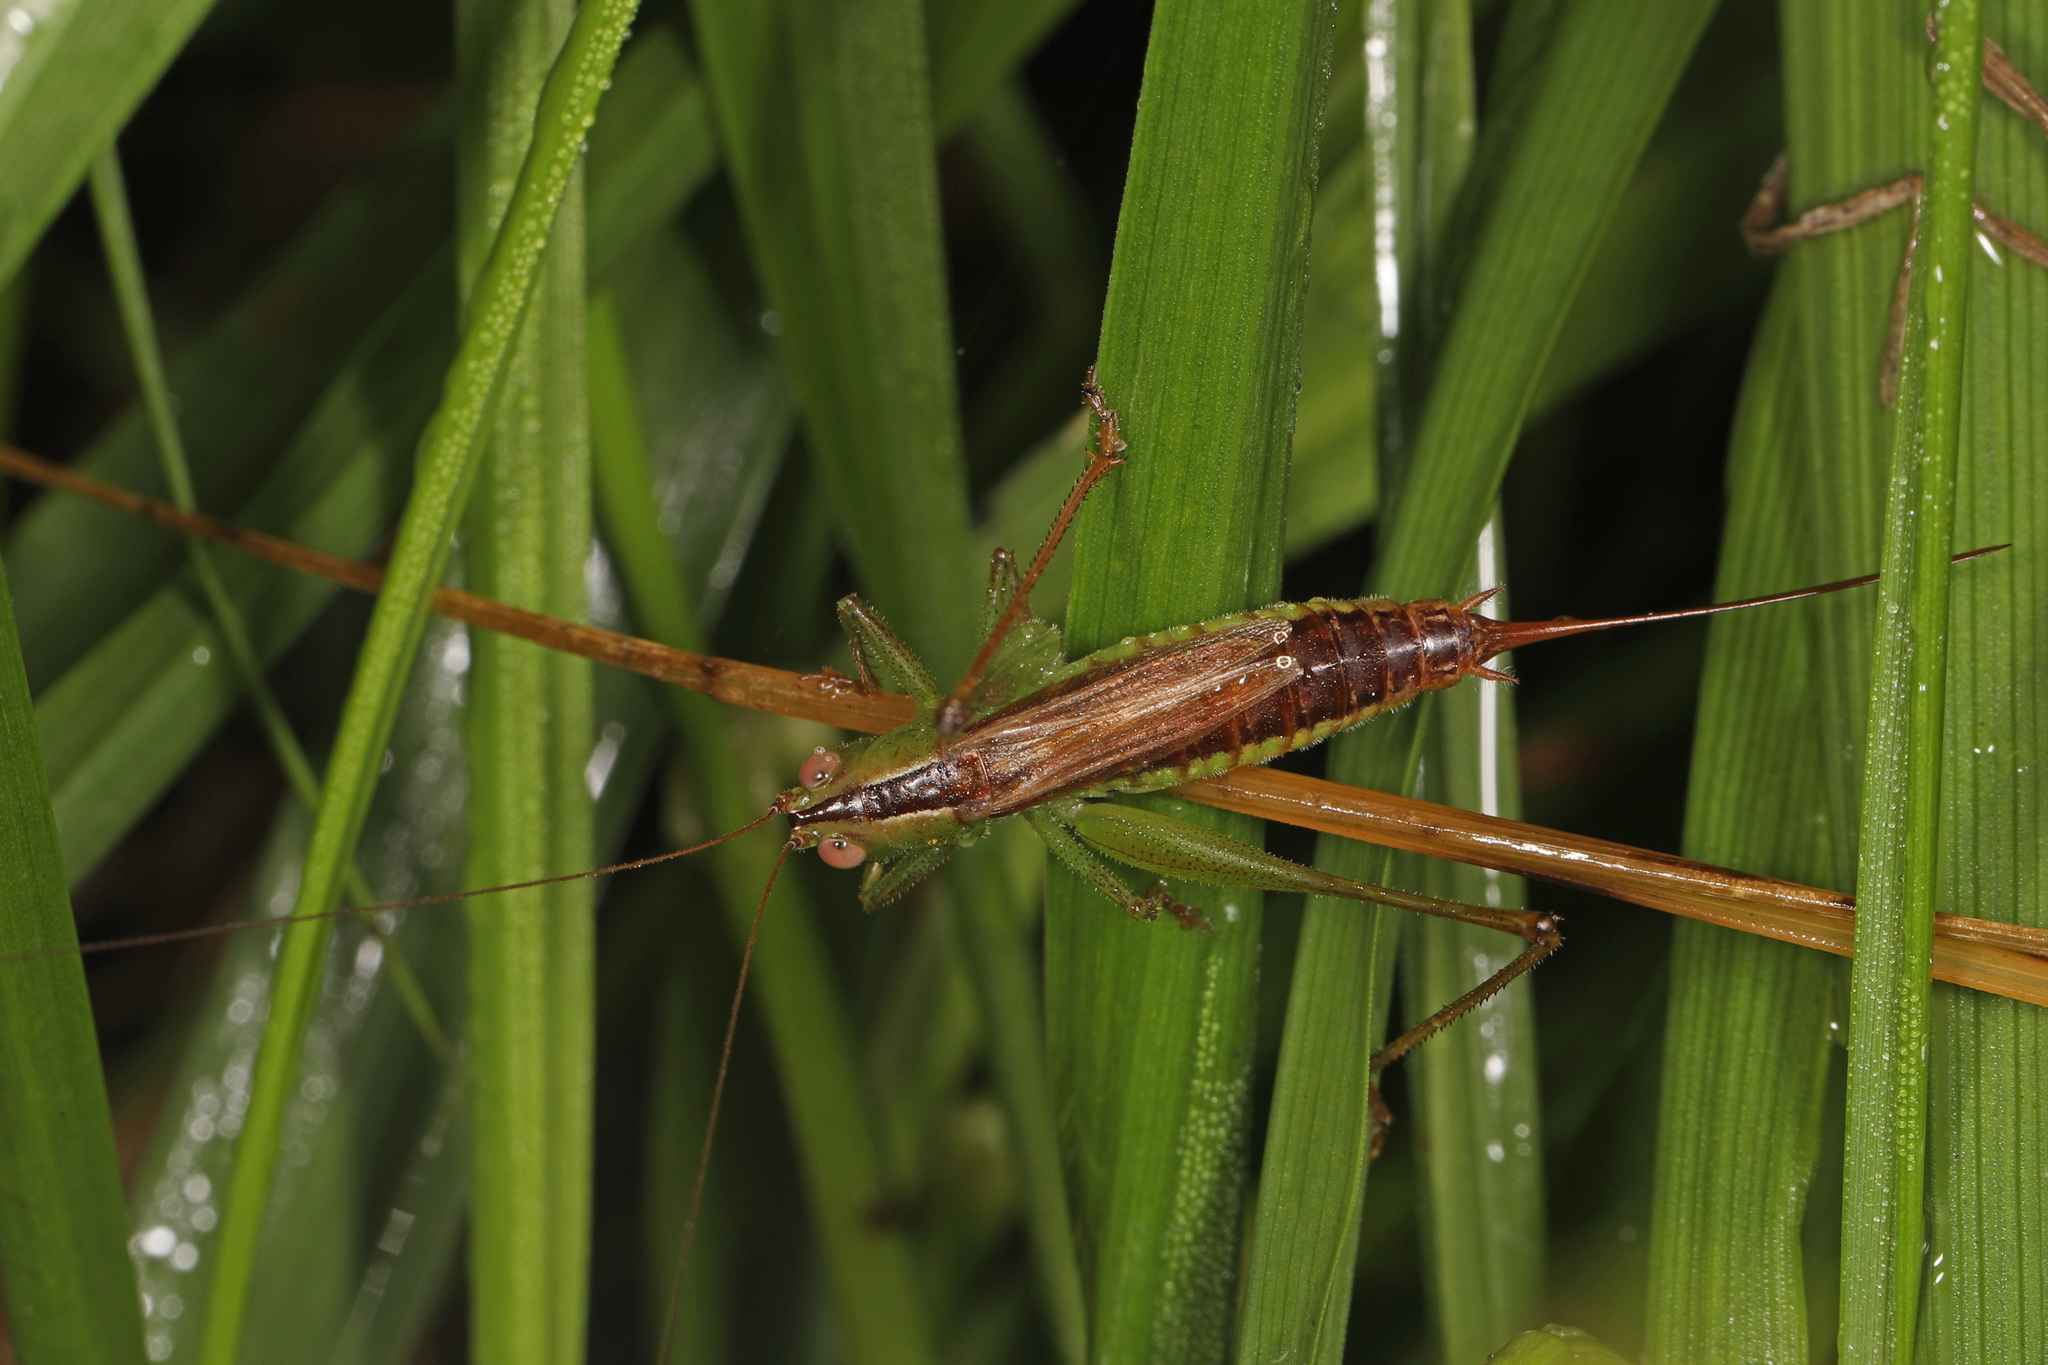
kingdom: Animalia
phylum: Arthropoda
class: Insecta
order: Orthoptera
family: Tettigoniidae
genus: Conocephalus
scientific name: Conocephalus brevipennis
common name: Short-winged meadow katydid
